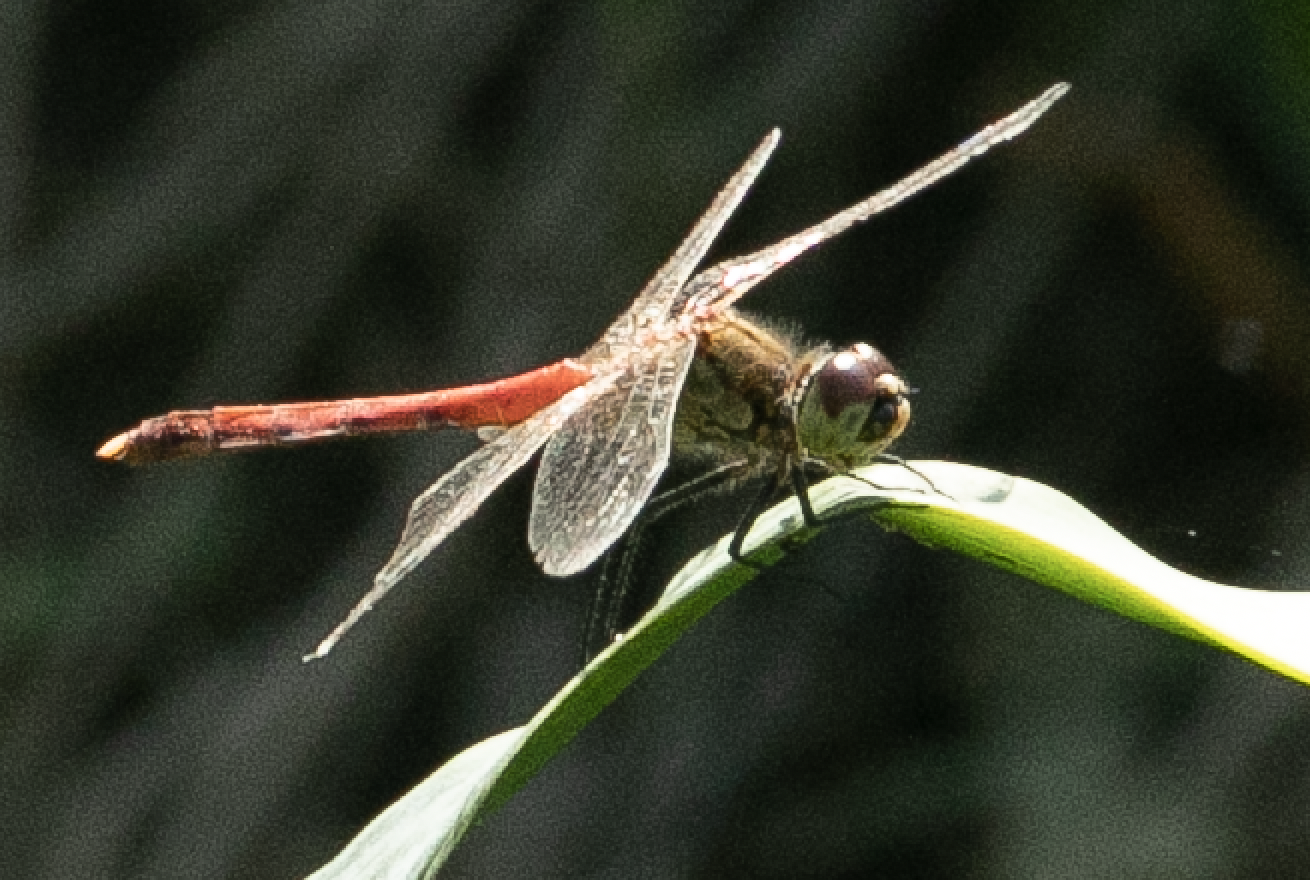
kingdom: Animalia
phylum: Arthropoda
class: Insecta
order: Odonata
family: Libellulidae
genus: Sympetrum
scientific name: Sympetrum depressiusculum
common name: Spotted darter
